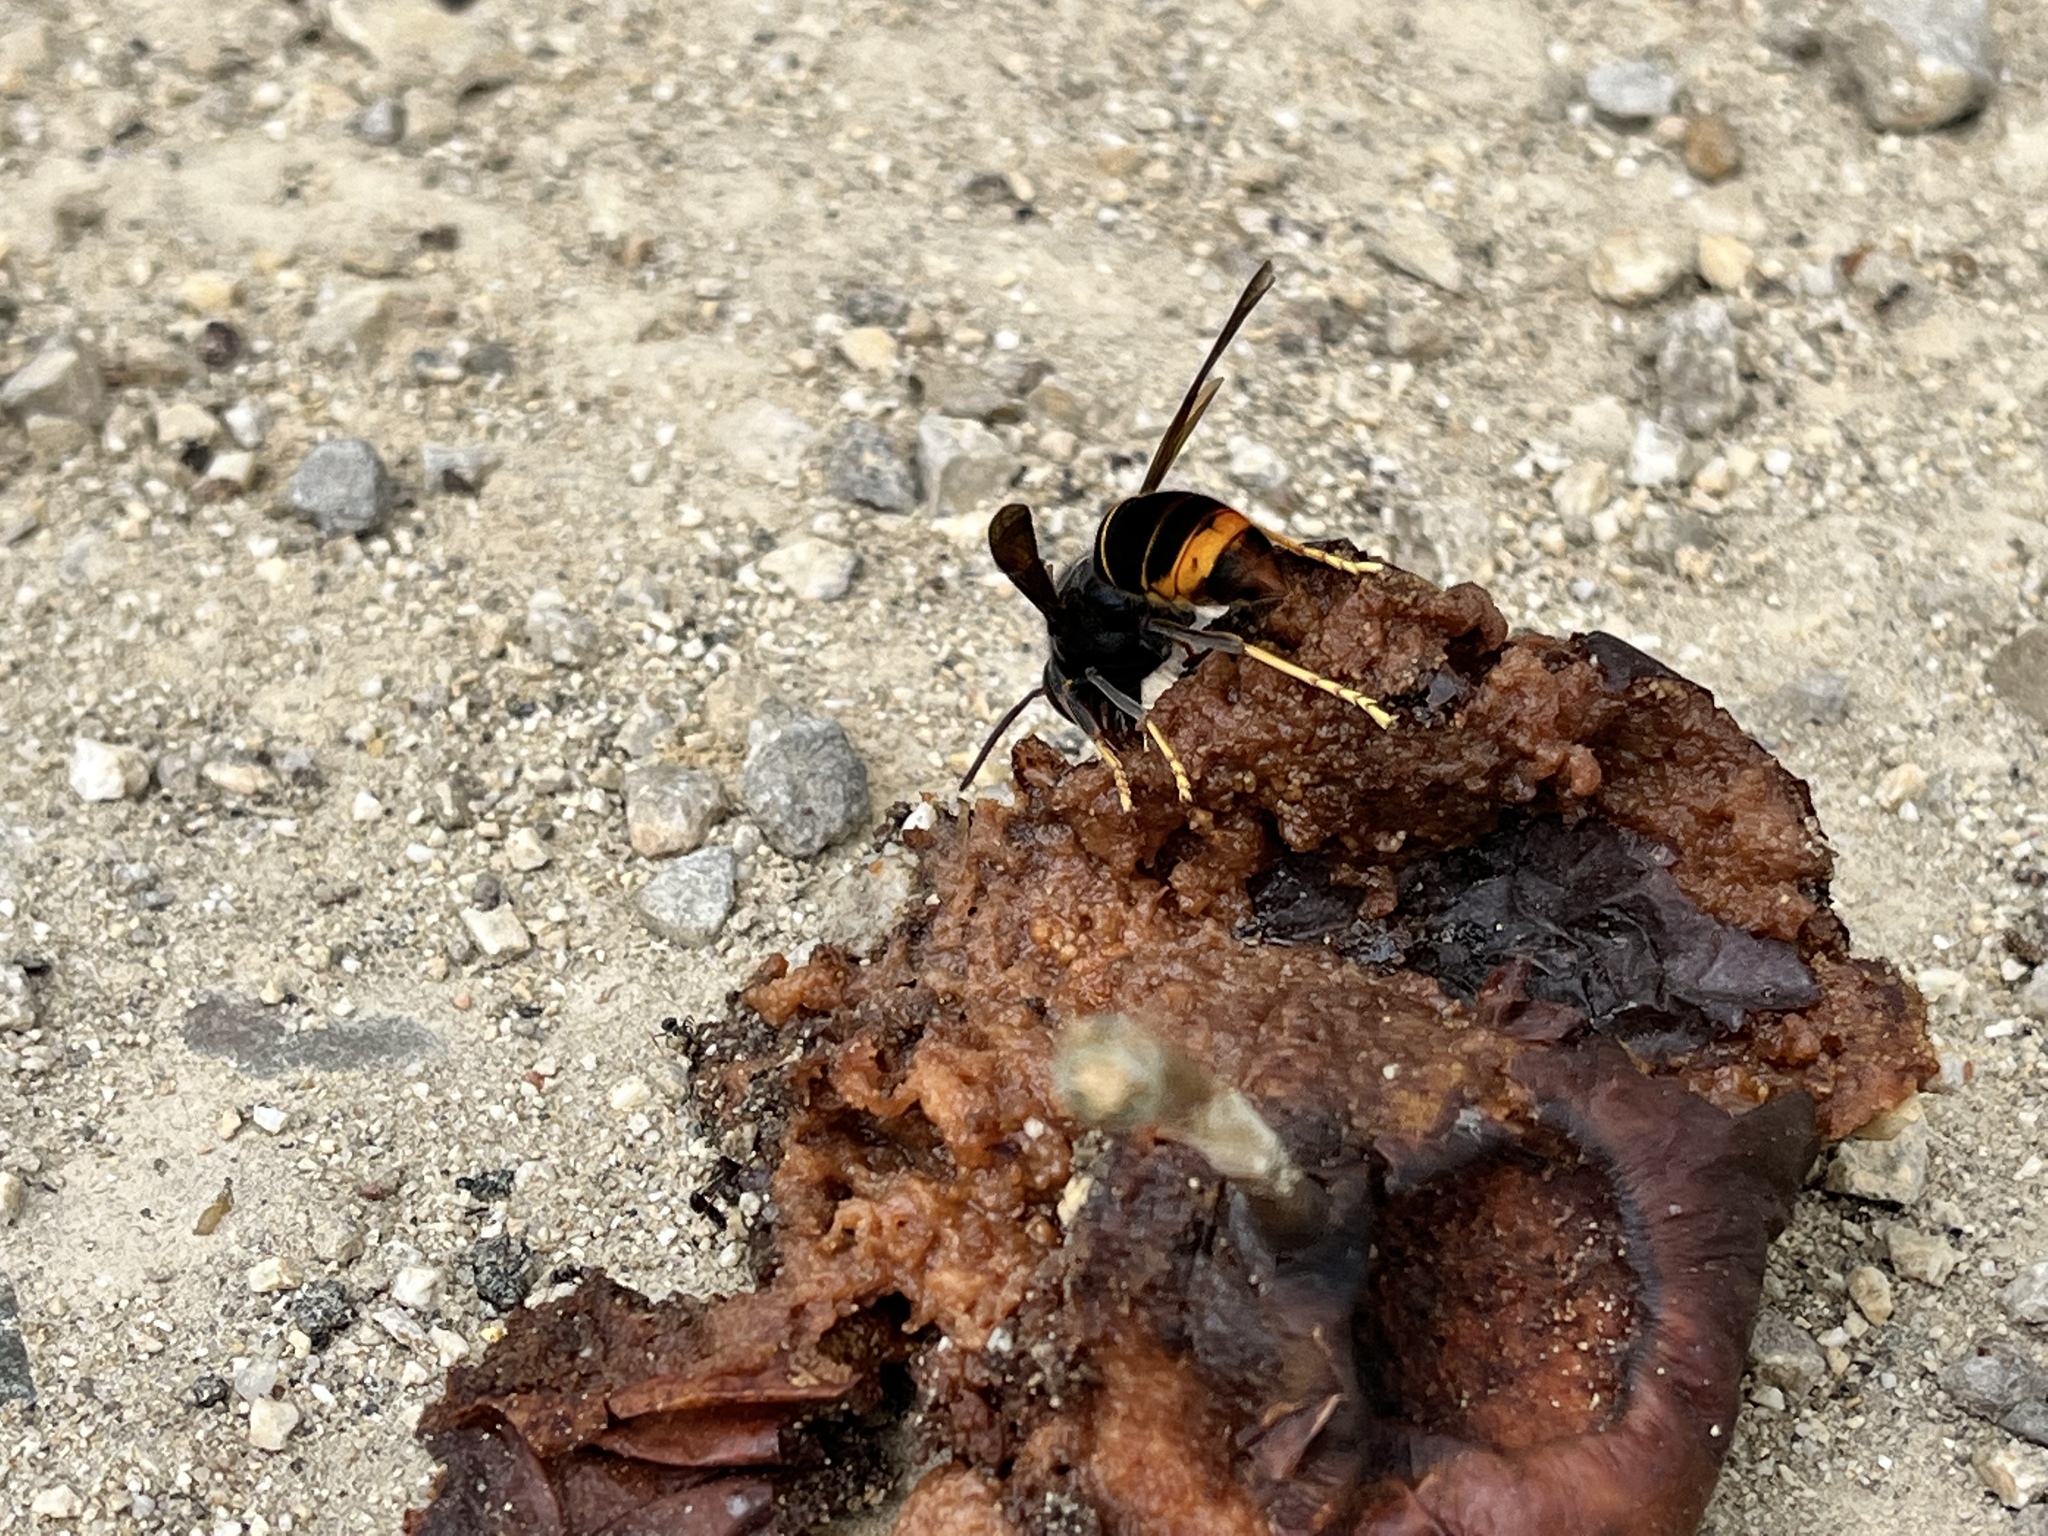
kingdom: Animalia
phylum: Arthropoda
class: Insecta
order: Hymenoptera
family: Vespidae
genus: Vespa
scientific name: Vespa velutina
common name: Asian hornet
